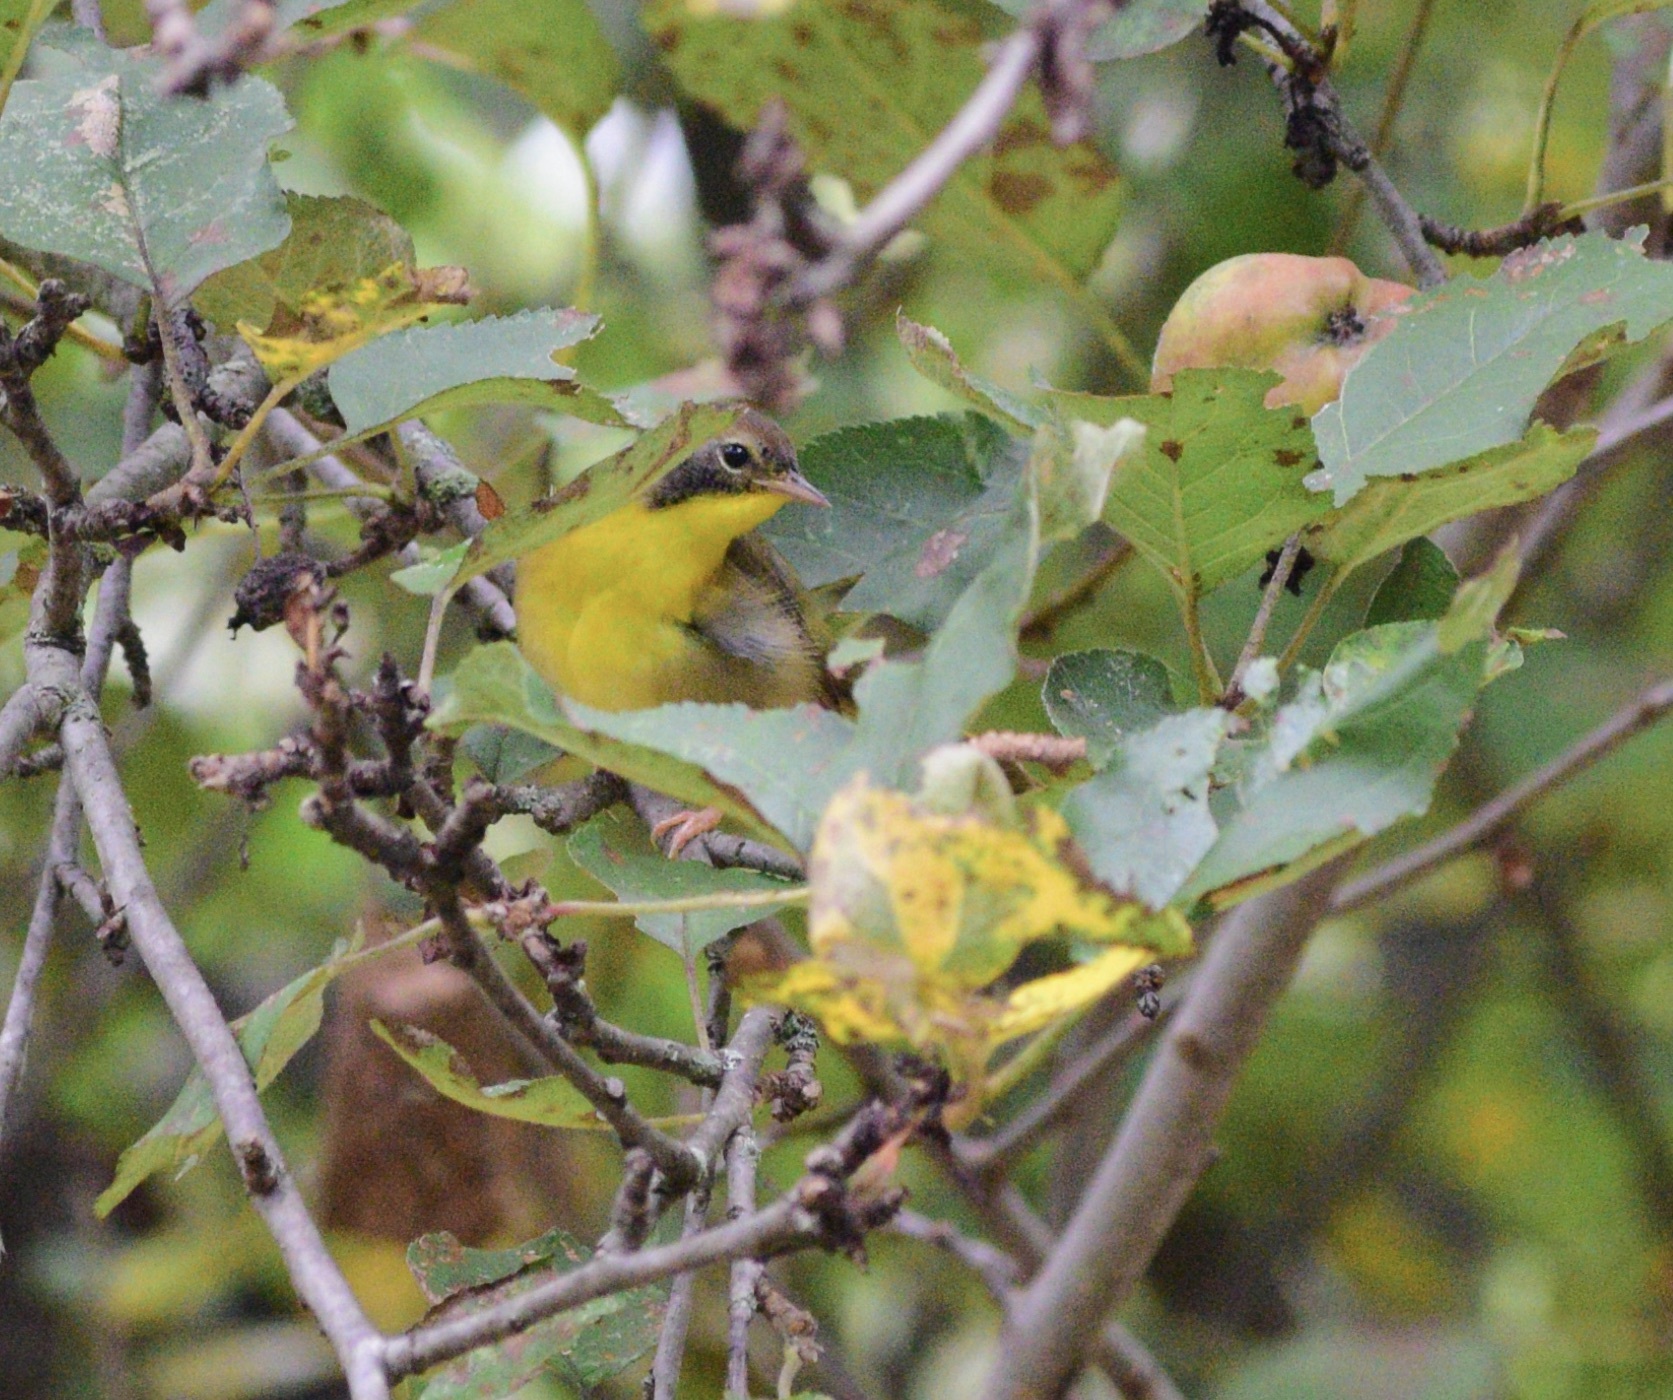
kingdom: Animalia
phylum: Chordata
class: Aves
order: Passeriformes
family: Parulidae
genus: Geothlypis
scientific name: Geothlypis trichas
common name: Common yellowthroat
